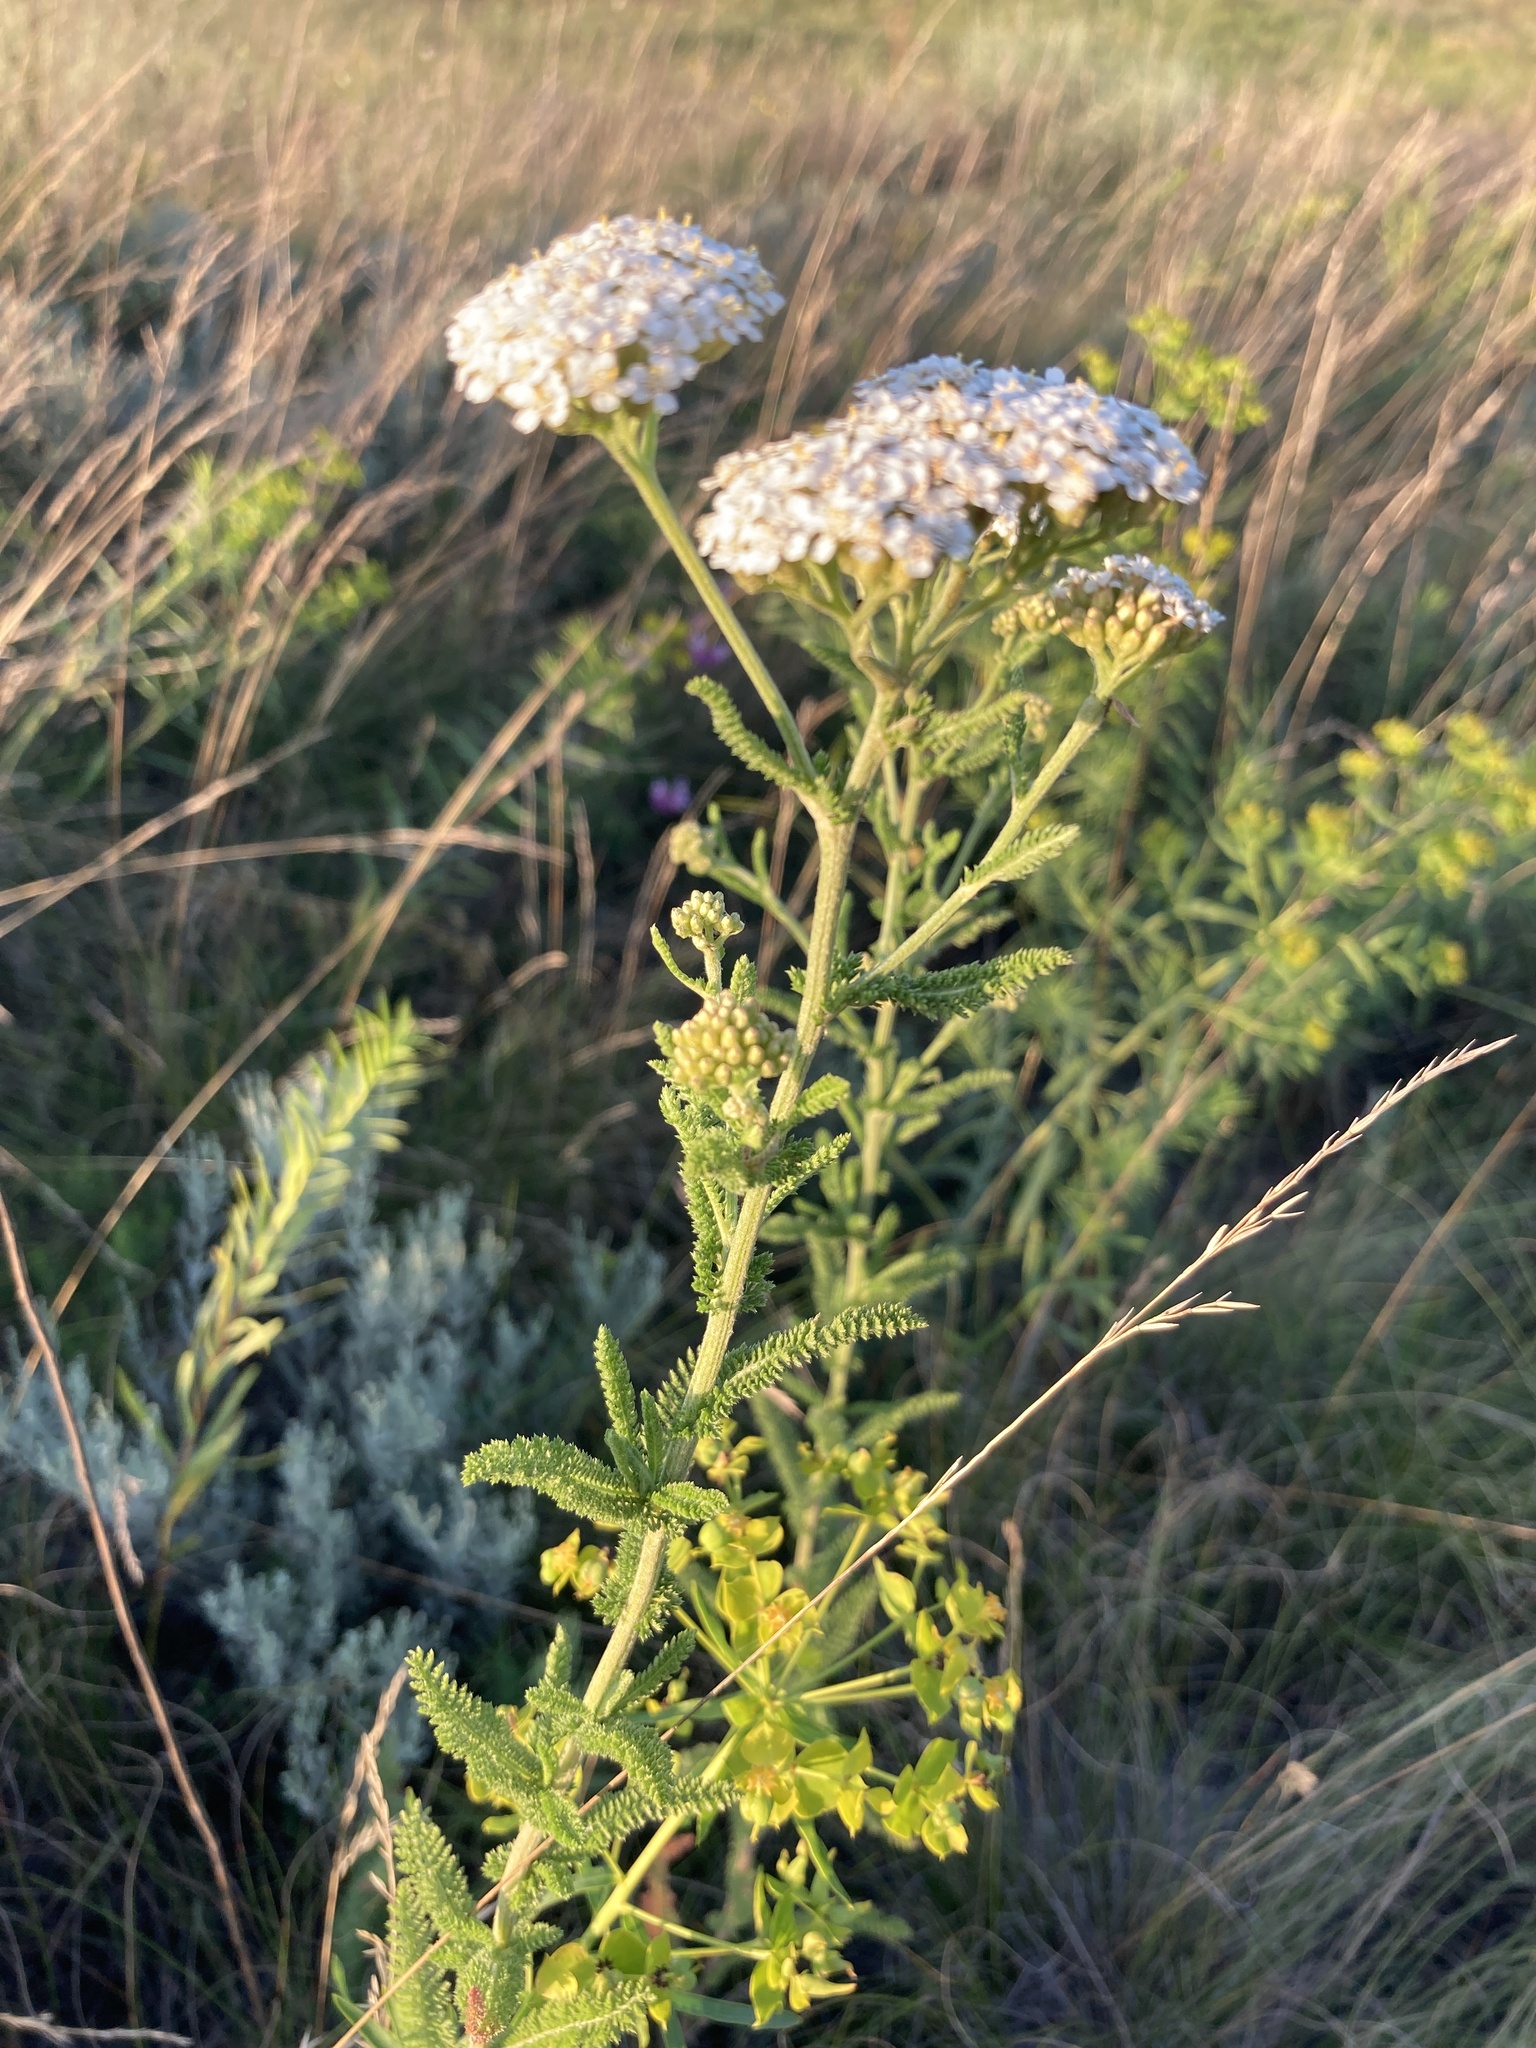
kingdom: Plantae
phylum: Tracheophyta
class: Magnoliopsida
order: Asterales
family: Asteraceae
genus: Achillea
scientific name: Achillea setacea
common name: Bristly yarrow
